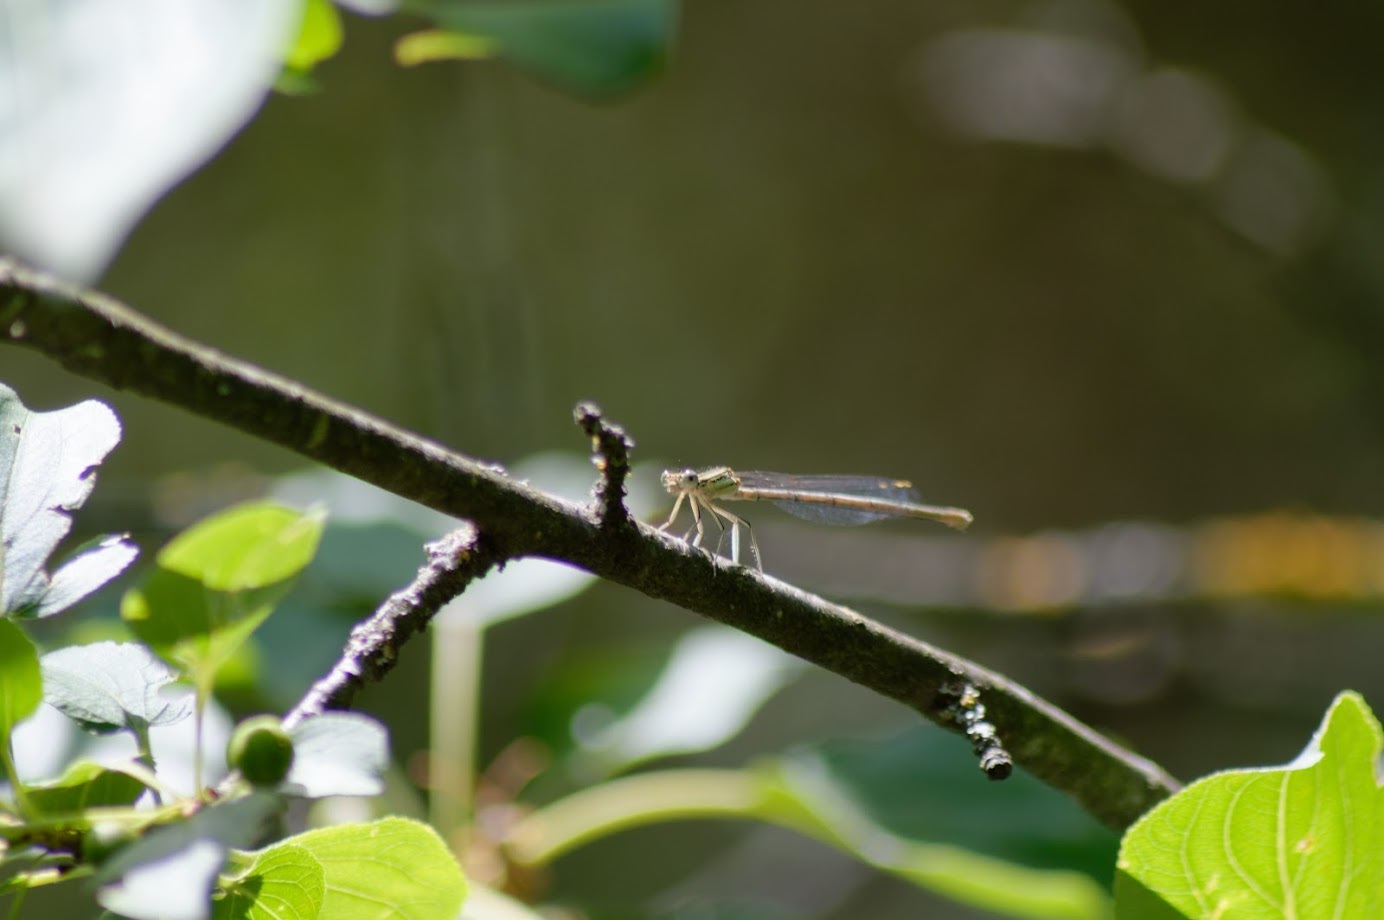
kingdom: Animalia
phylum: Arthropoda
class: Insecta
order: Odonata
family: Platycnemididae
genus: Platycnemis
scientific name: Platycnemis pennipes
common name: White-legged damselfly
